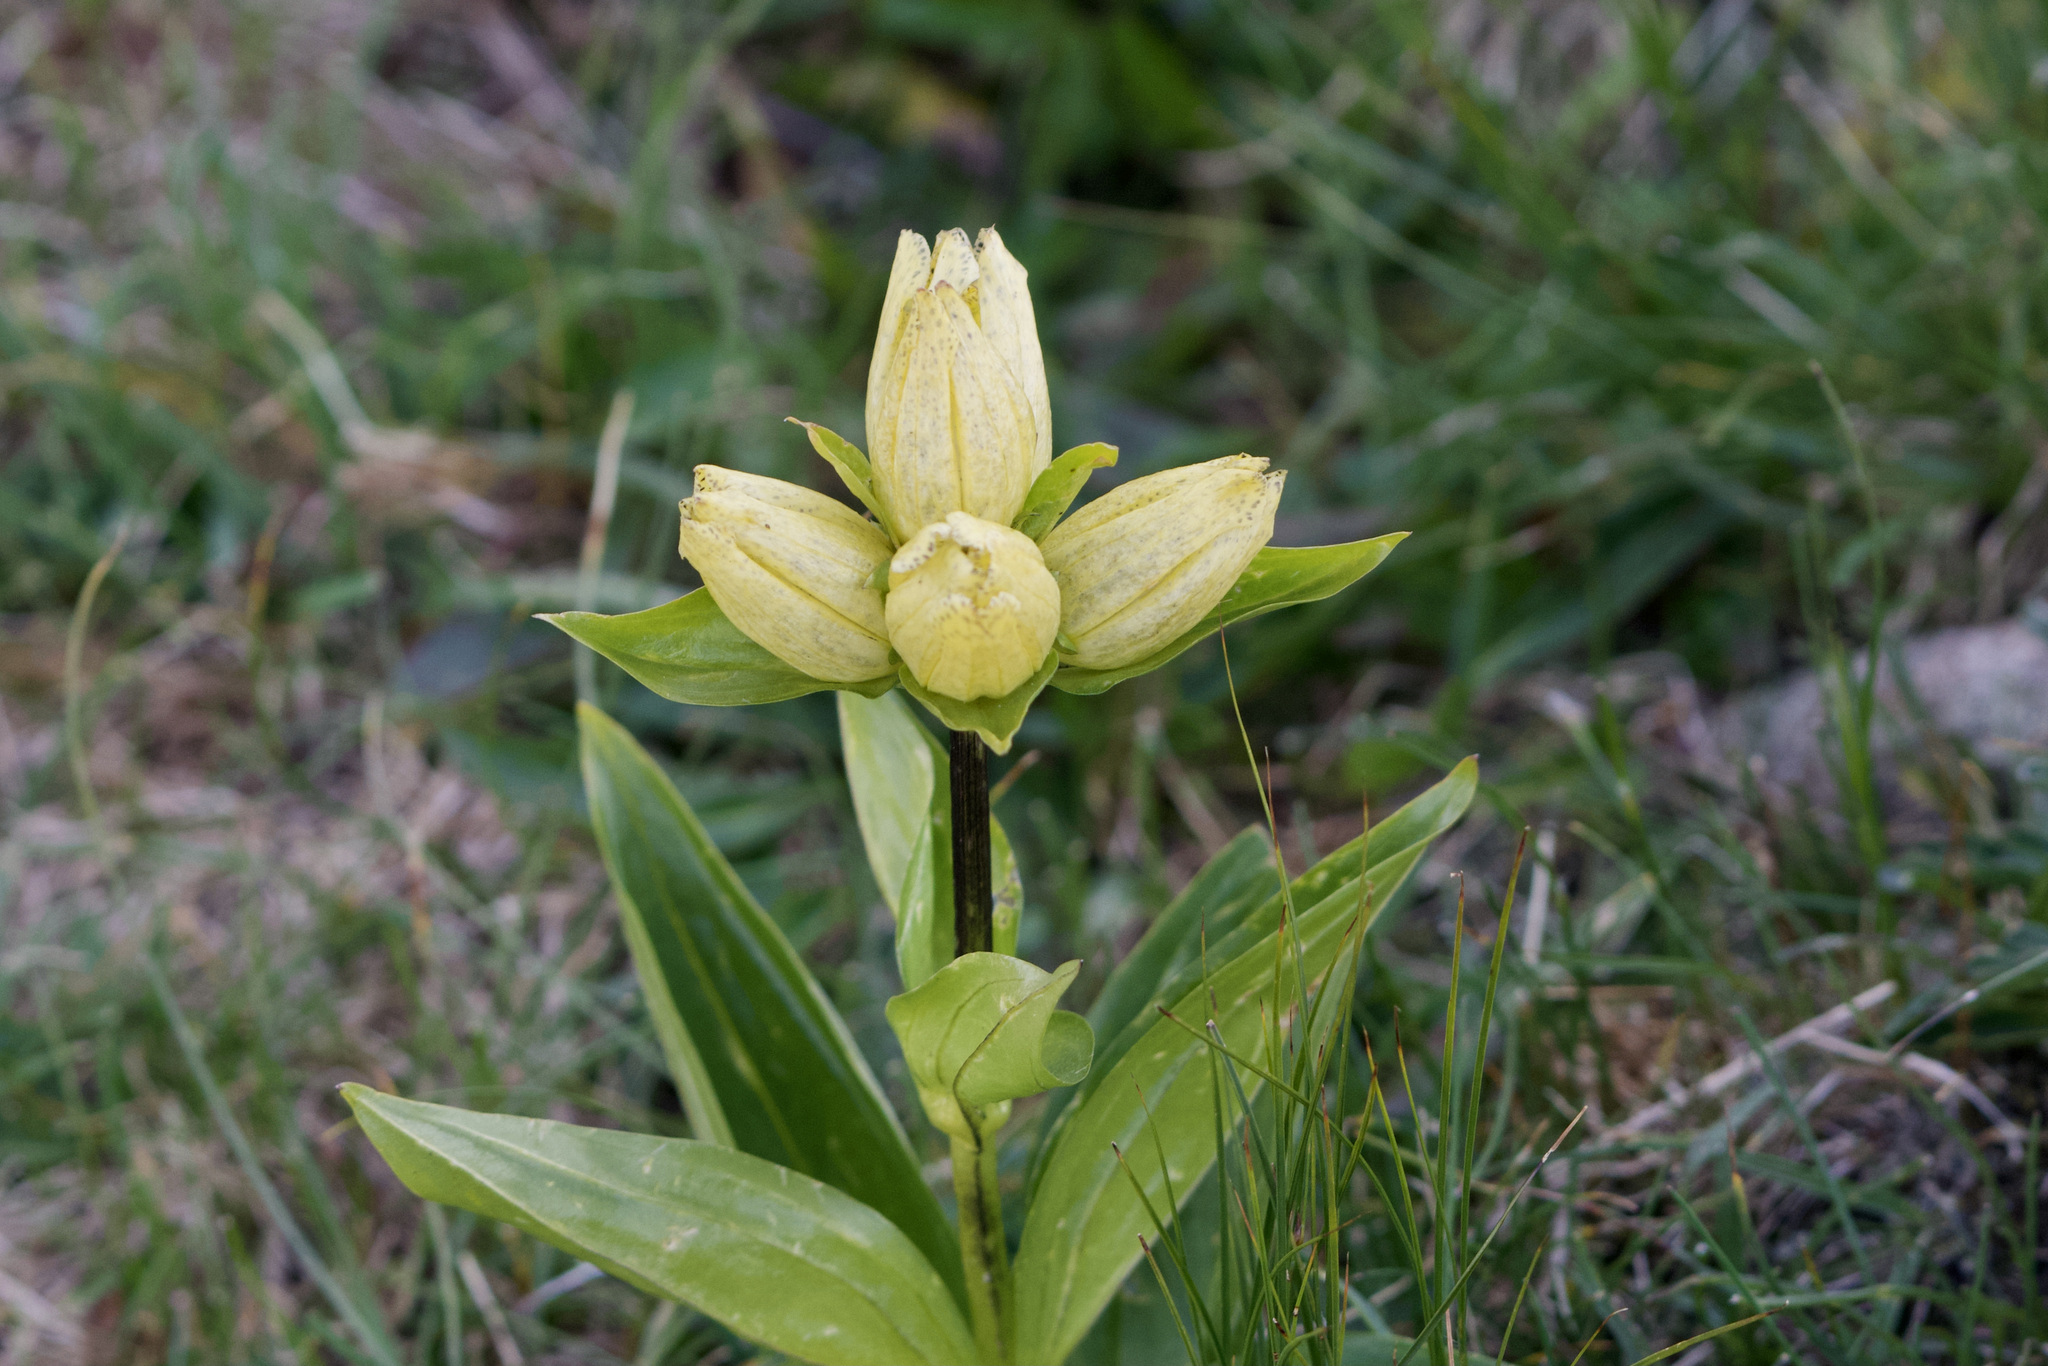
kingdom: Plantae
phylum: Tracheophyta
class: Magnoliopsida
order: Gentianales
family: Gentianaceae
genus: Gentiana
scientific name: Gentiana punctata
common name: Spotted gentian
